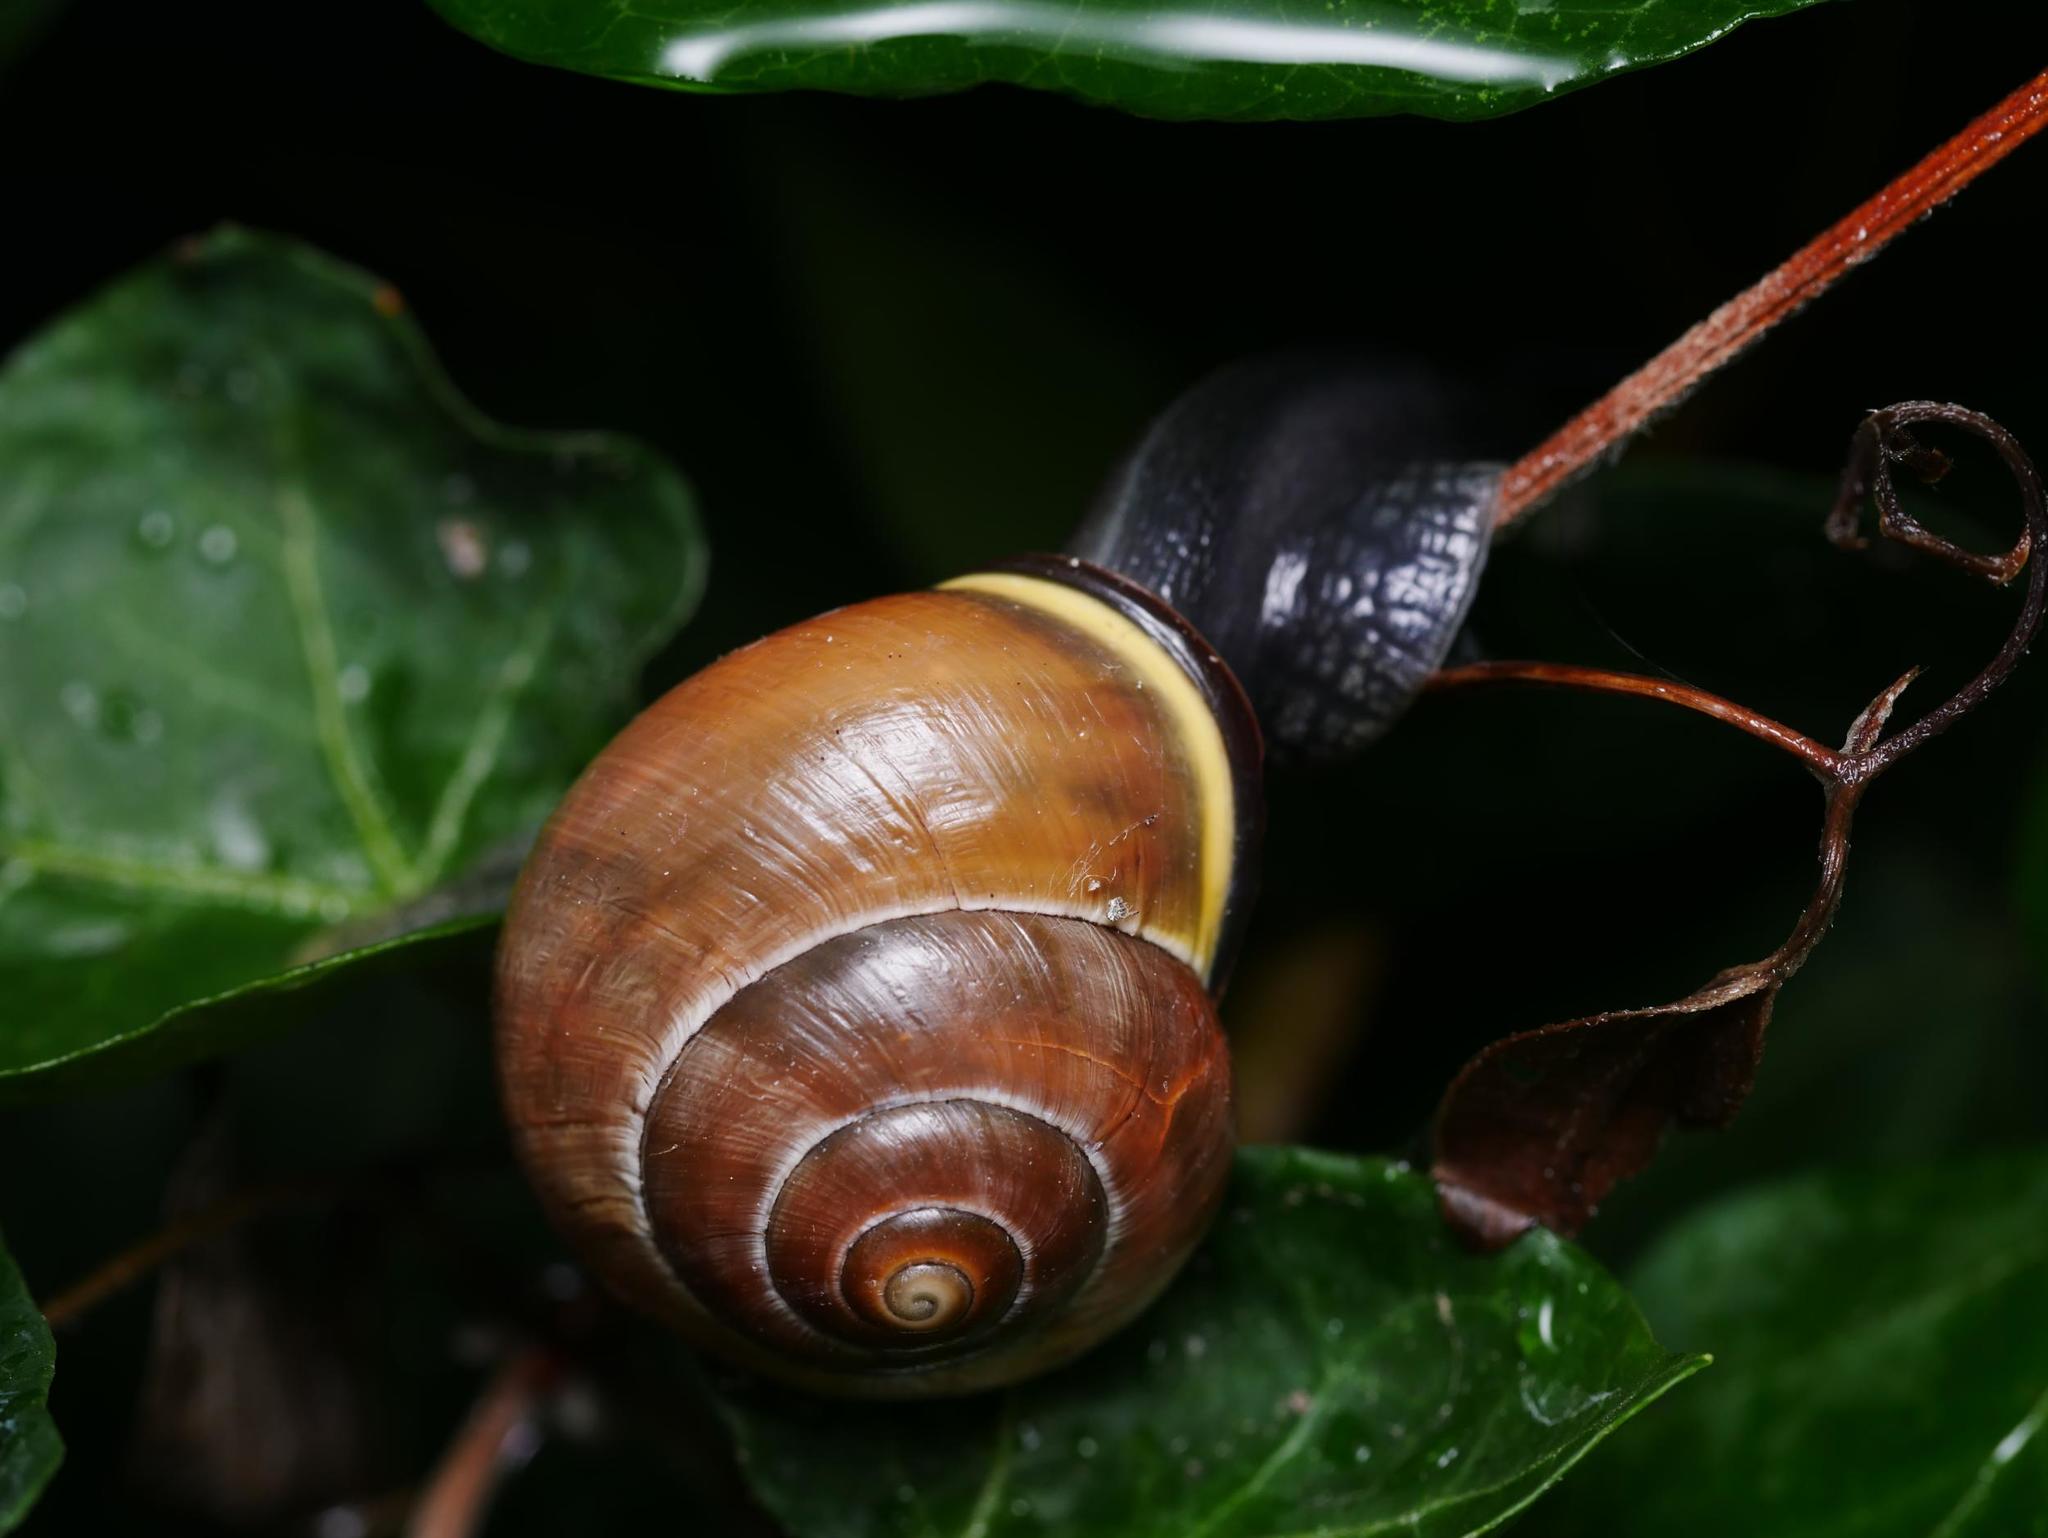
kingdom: Animalia
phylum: Mollusca
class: Gastropoda
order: Stylommatophora
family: Helicidae
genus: Cepaea
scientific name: Cepaea nemoralis
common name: Grovesnail
